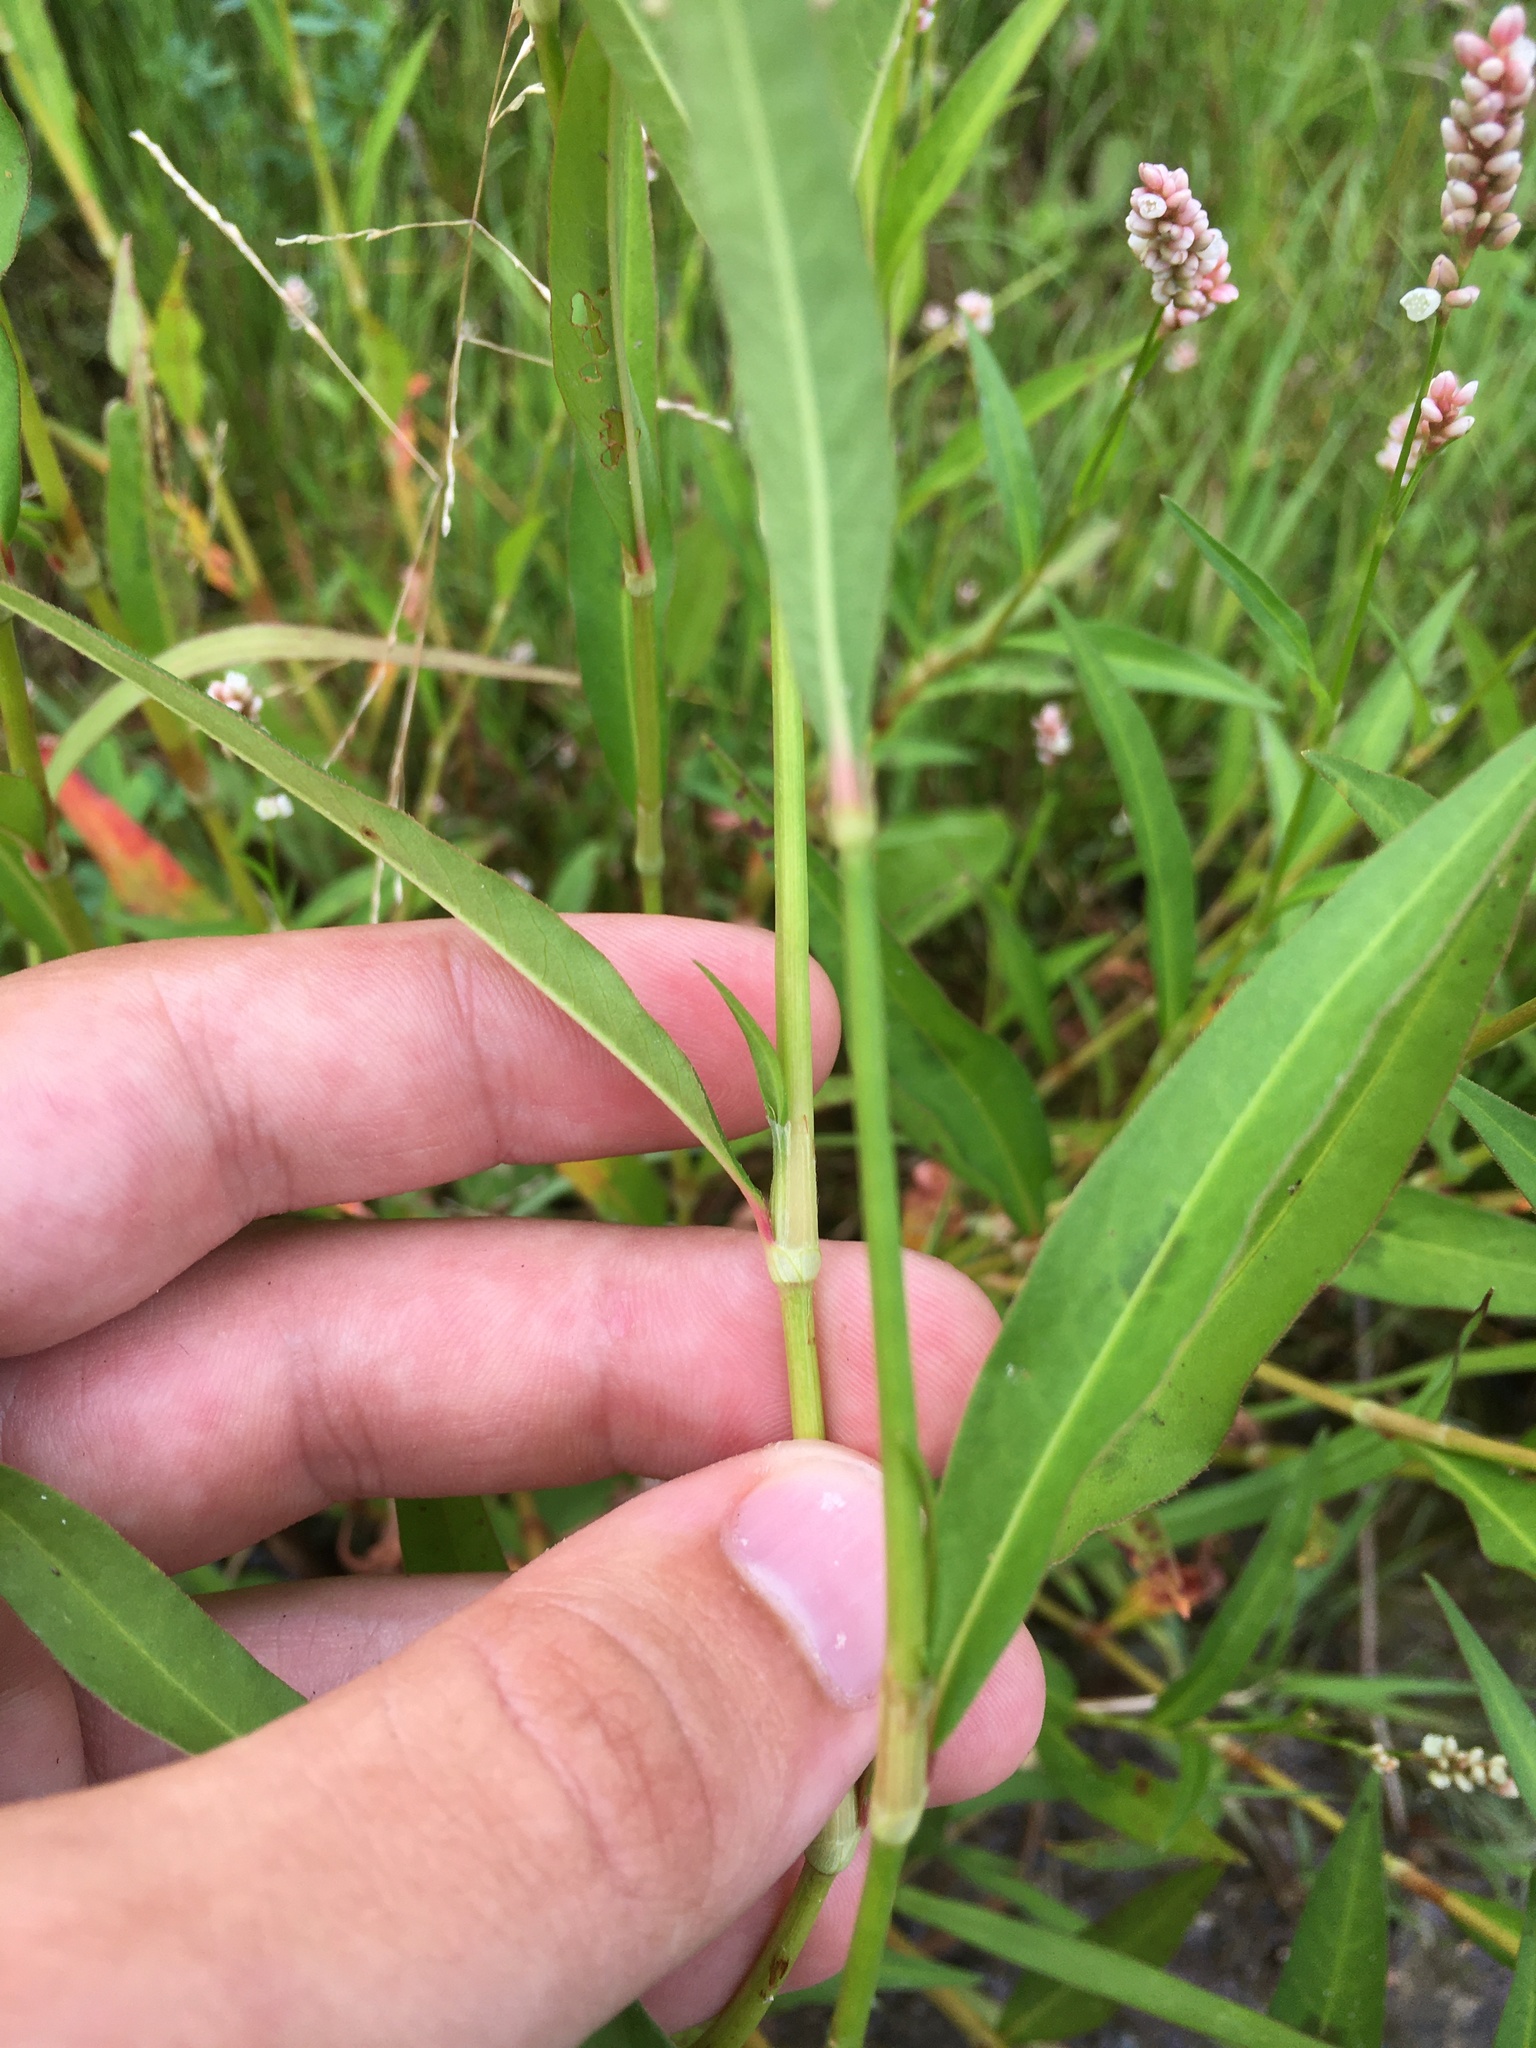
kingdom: Plantae
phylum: Tracheophyta
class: Magnoliopsida
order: Caryophyllales
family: Polygonaceae
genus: Persicaria
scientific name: Persicaria pensylvanica
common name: Pinkweed
